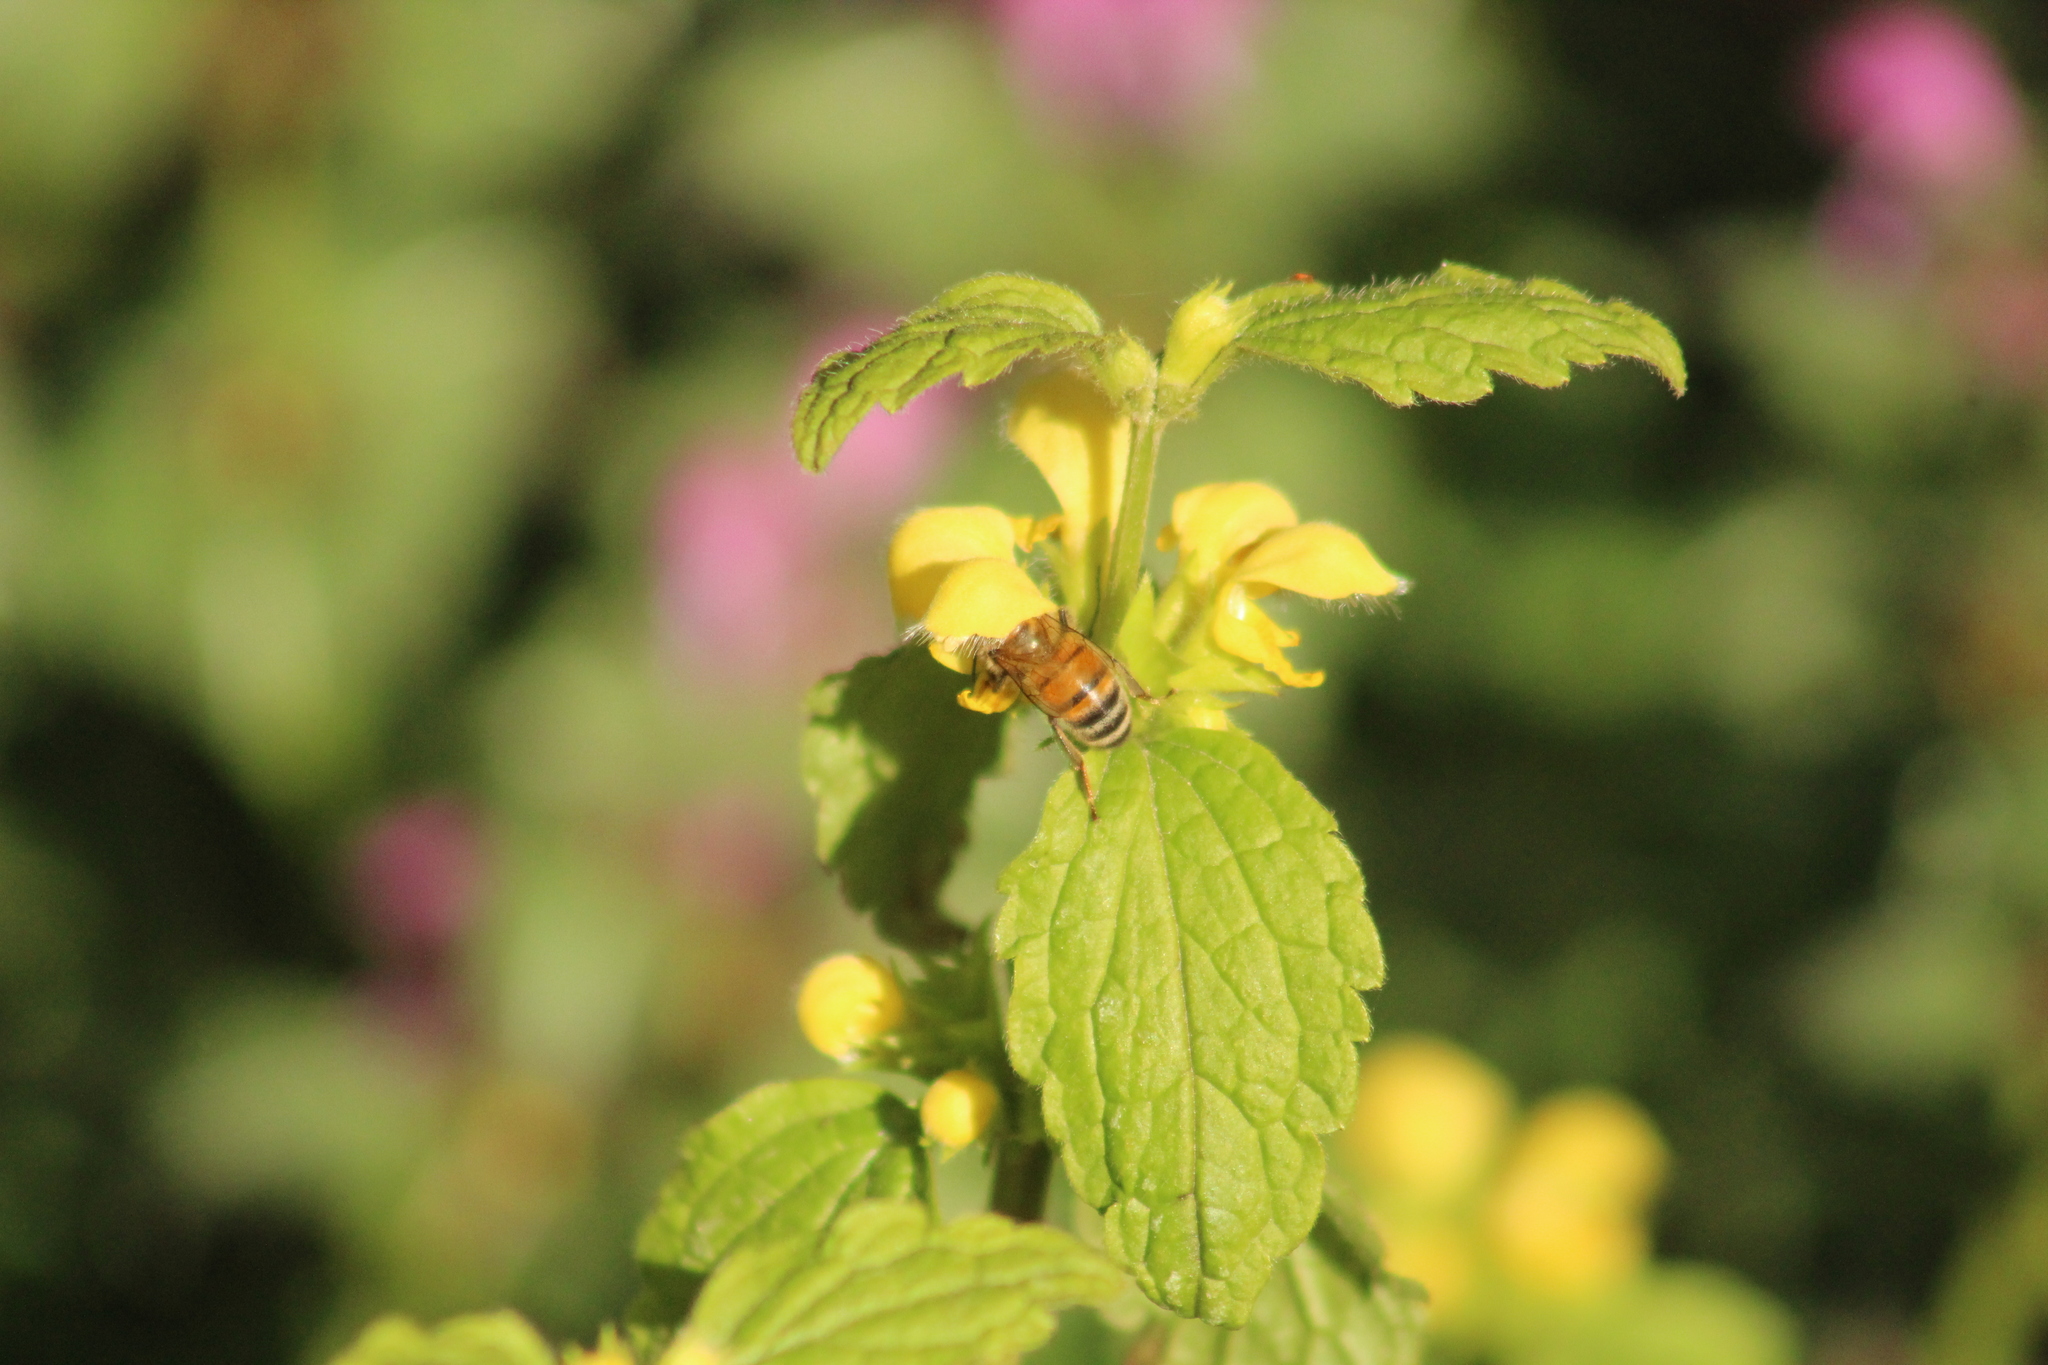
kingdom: Animalia
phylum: Arthropoda
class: Insecta
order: Hymenoptera
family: Apidae
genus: Apis
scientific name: Apis mellifera
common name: Honey bee
